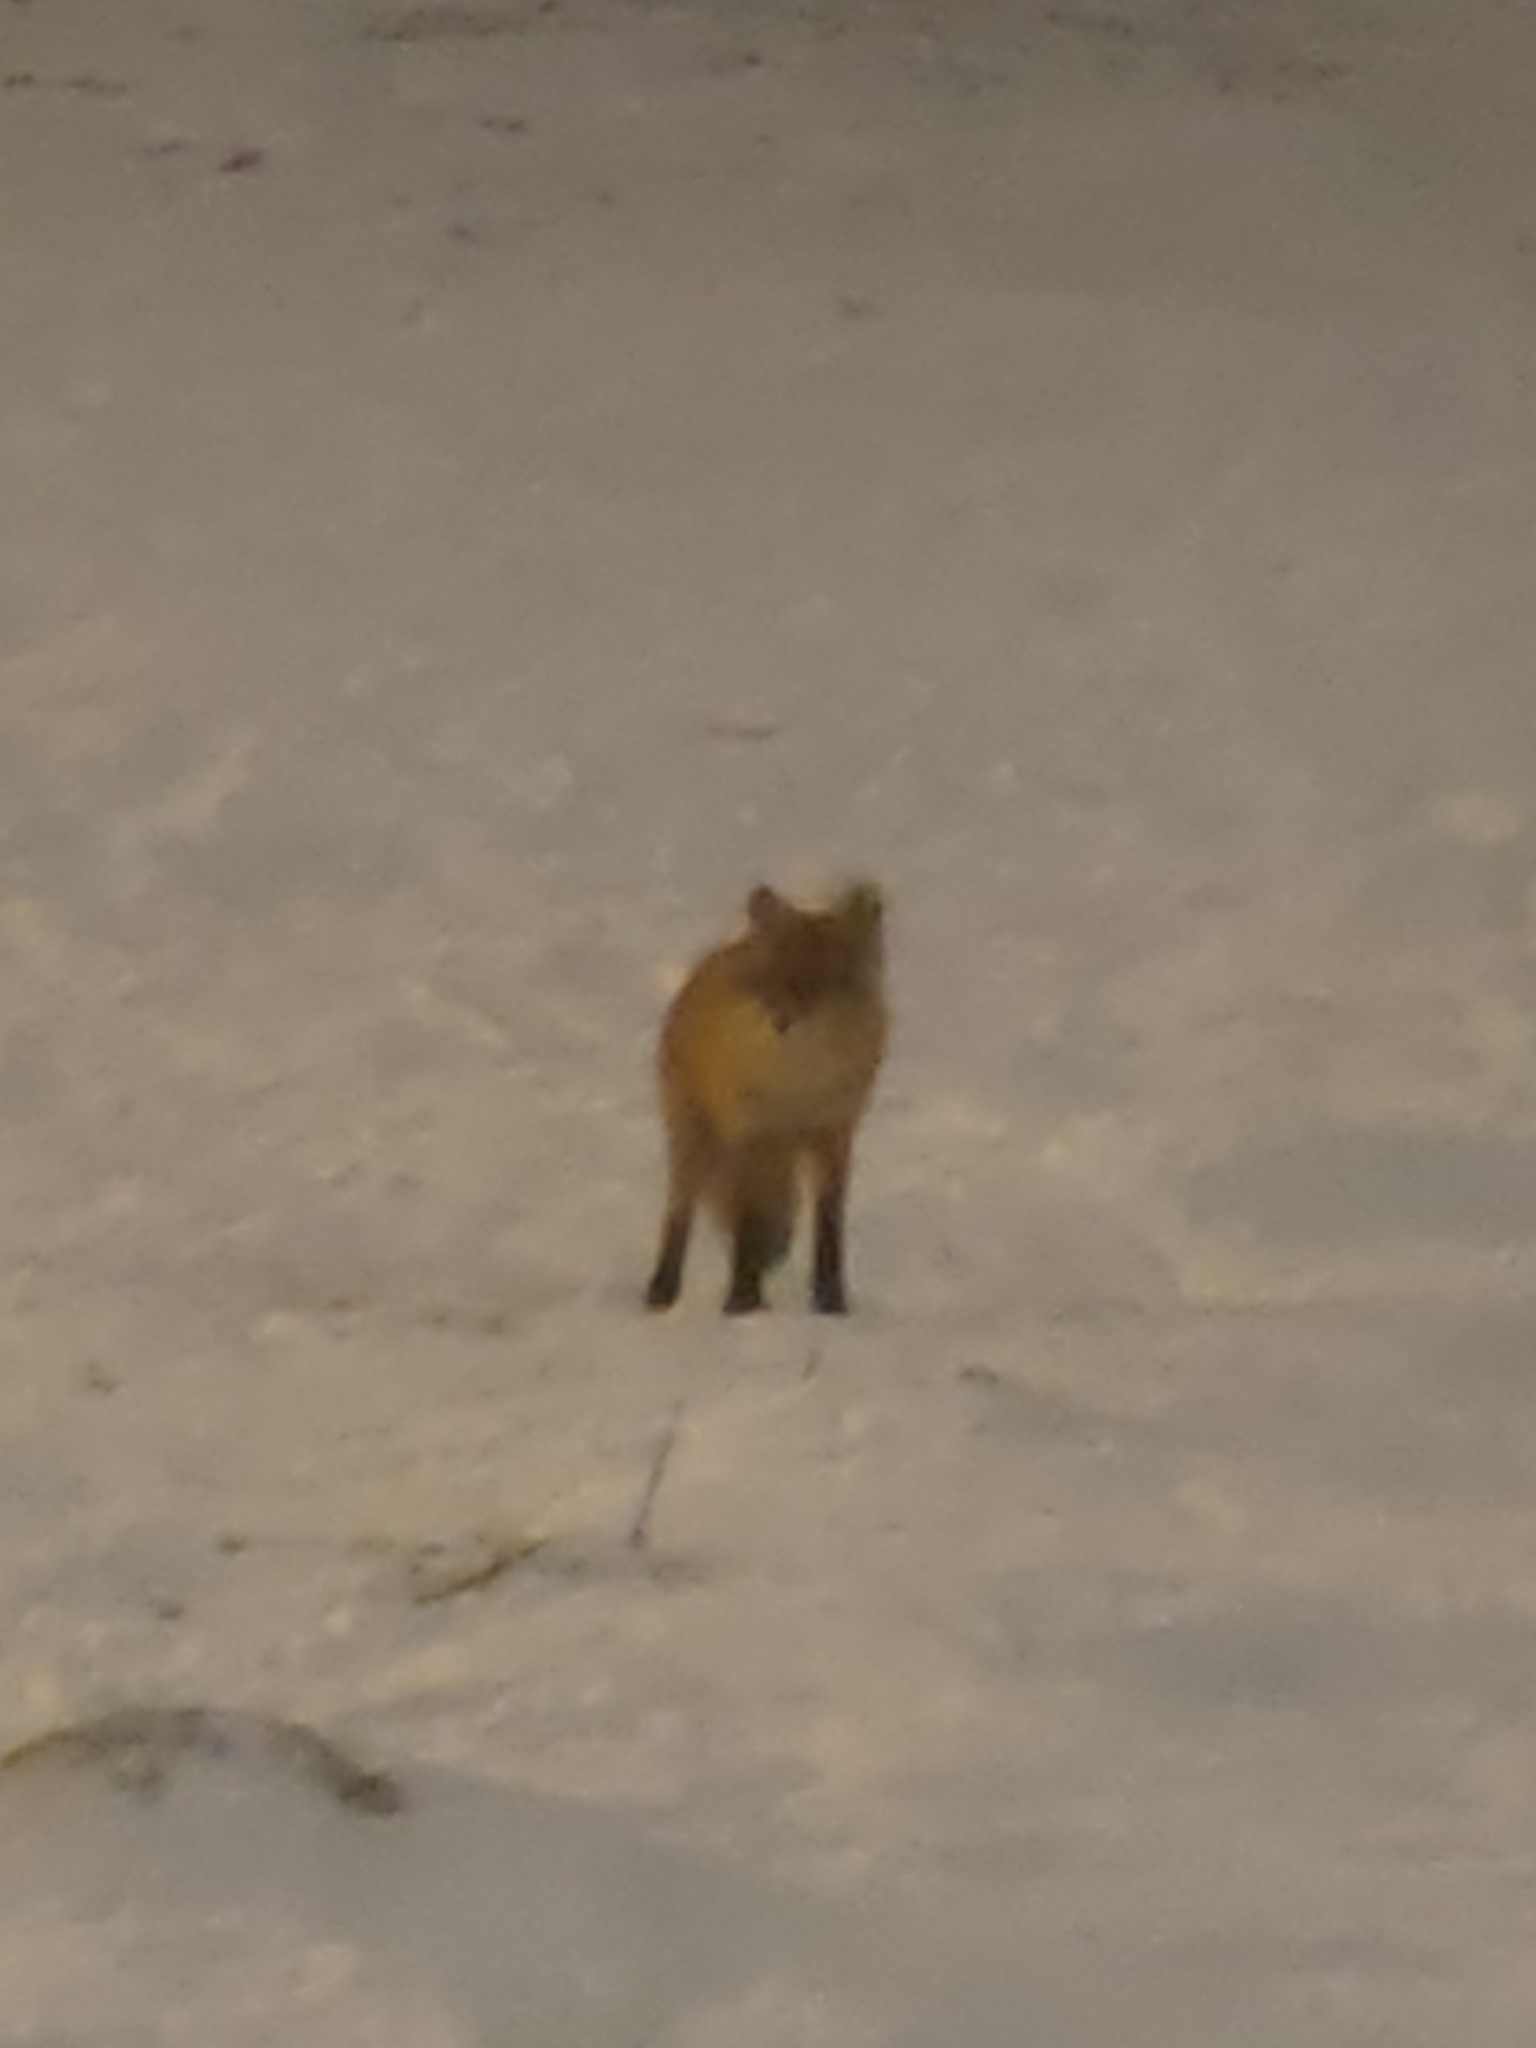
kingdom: Animalia
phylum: Chordata
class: Mammalia
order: Carnivora
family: Canidae
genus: Vulpes
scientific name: Vulpes vulpes
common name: Red fox
